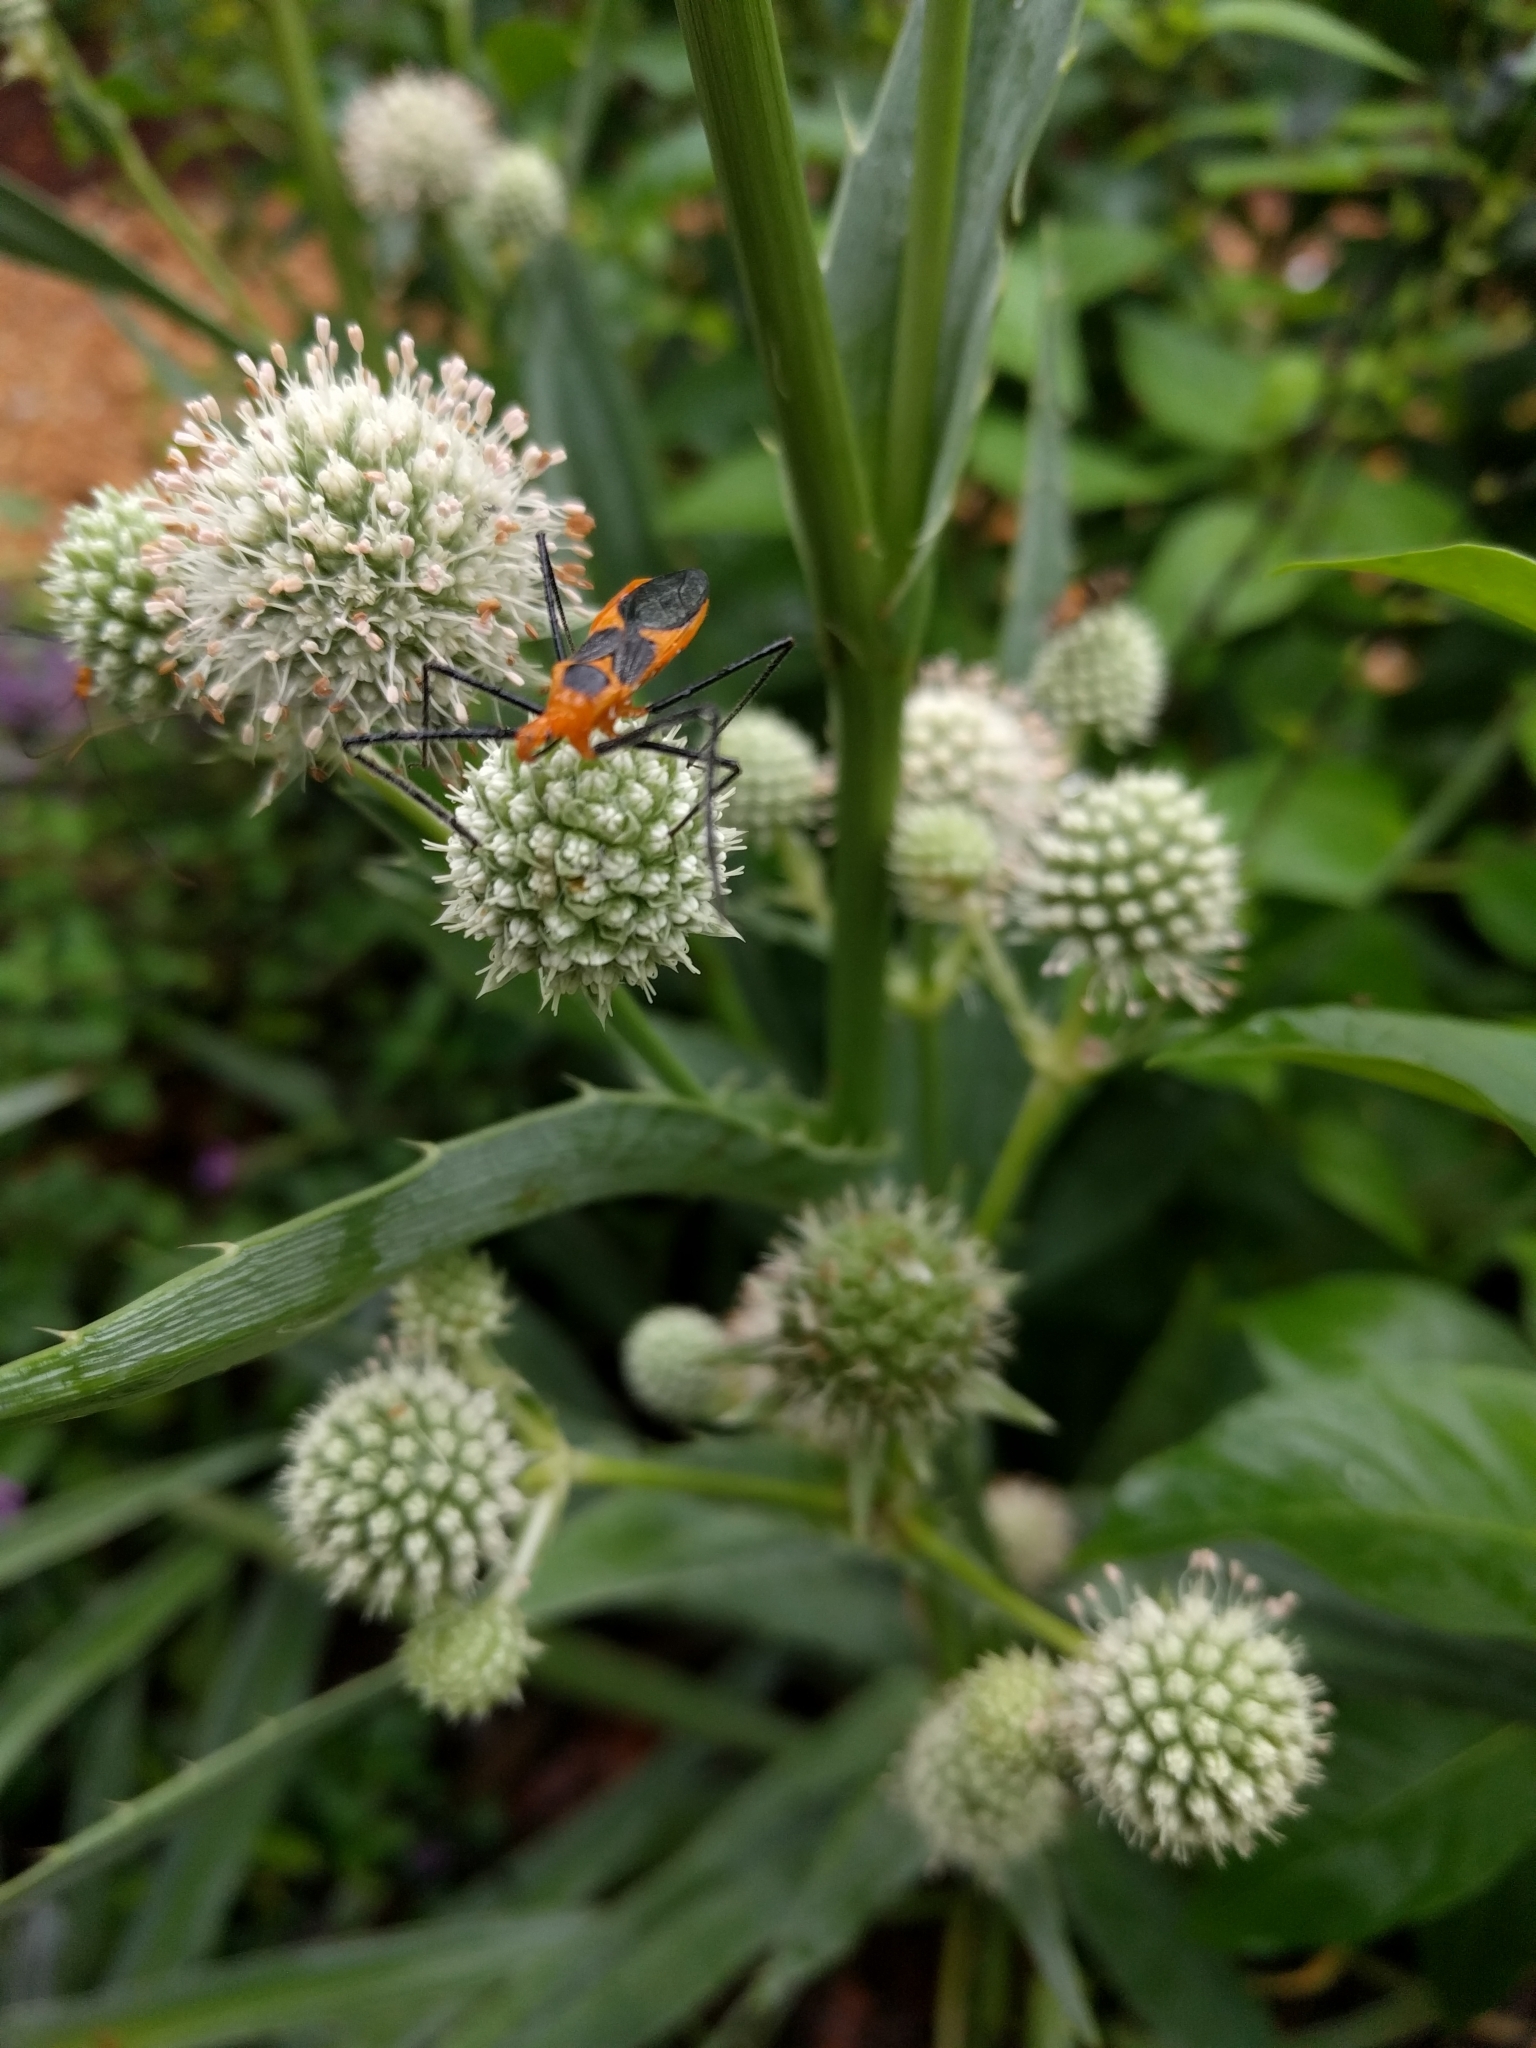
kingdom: Animalia
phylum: Arthropoda
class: Insecta
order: Hemiptera
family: Reduviidae
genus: Zelus
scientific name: Zelus longipes
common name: Milkweed assassin bug
